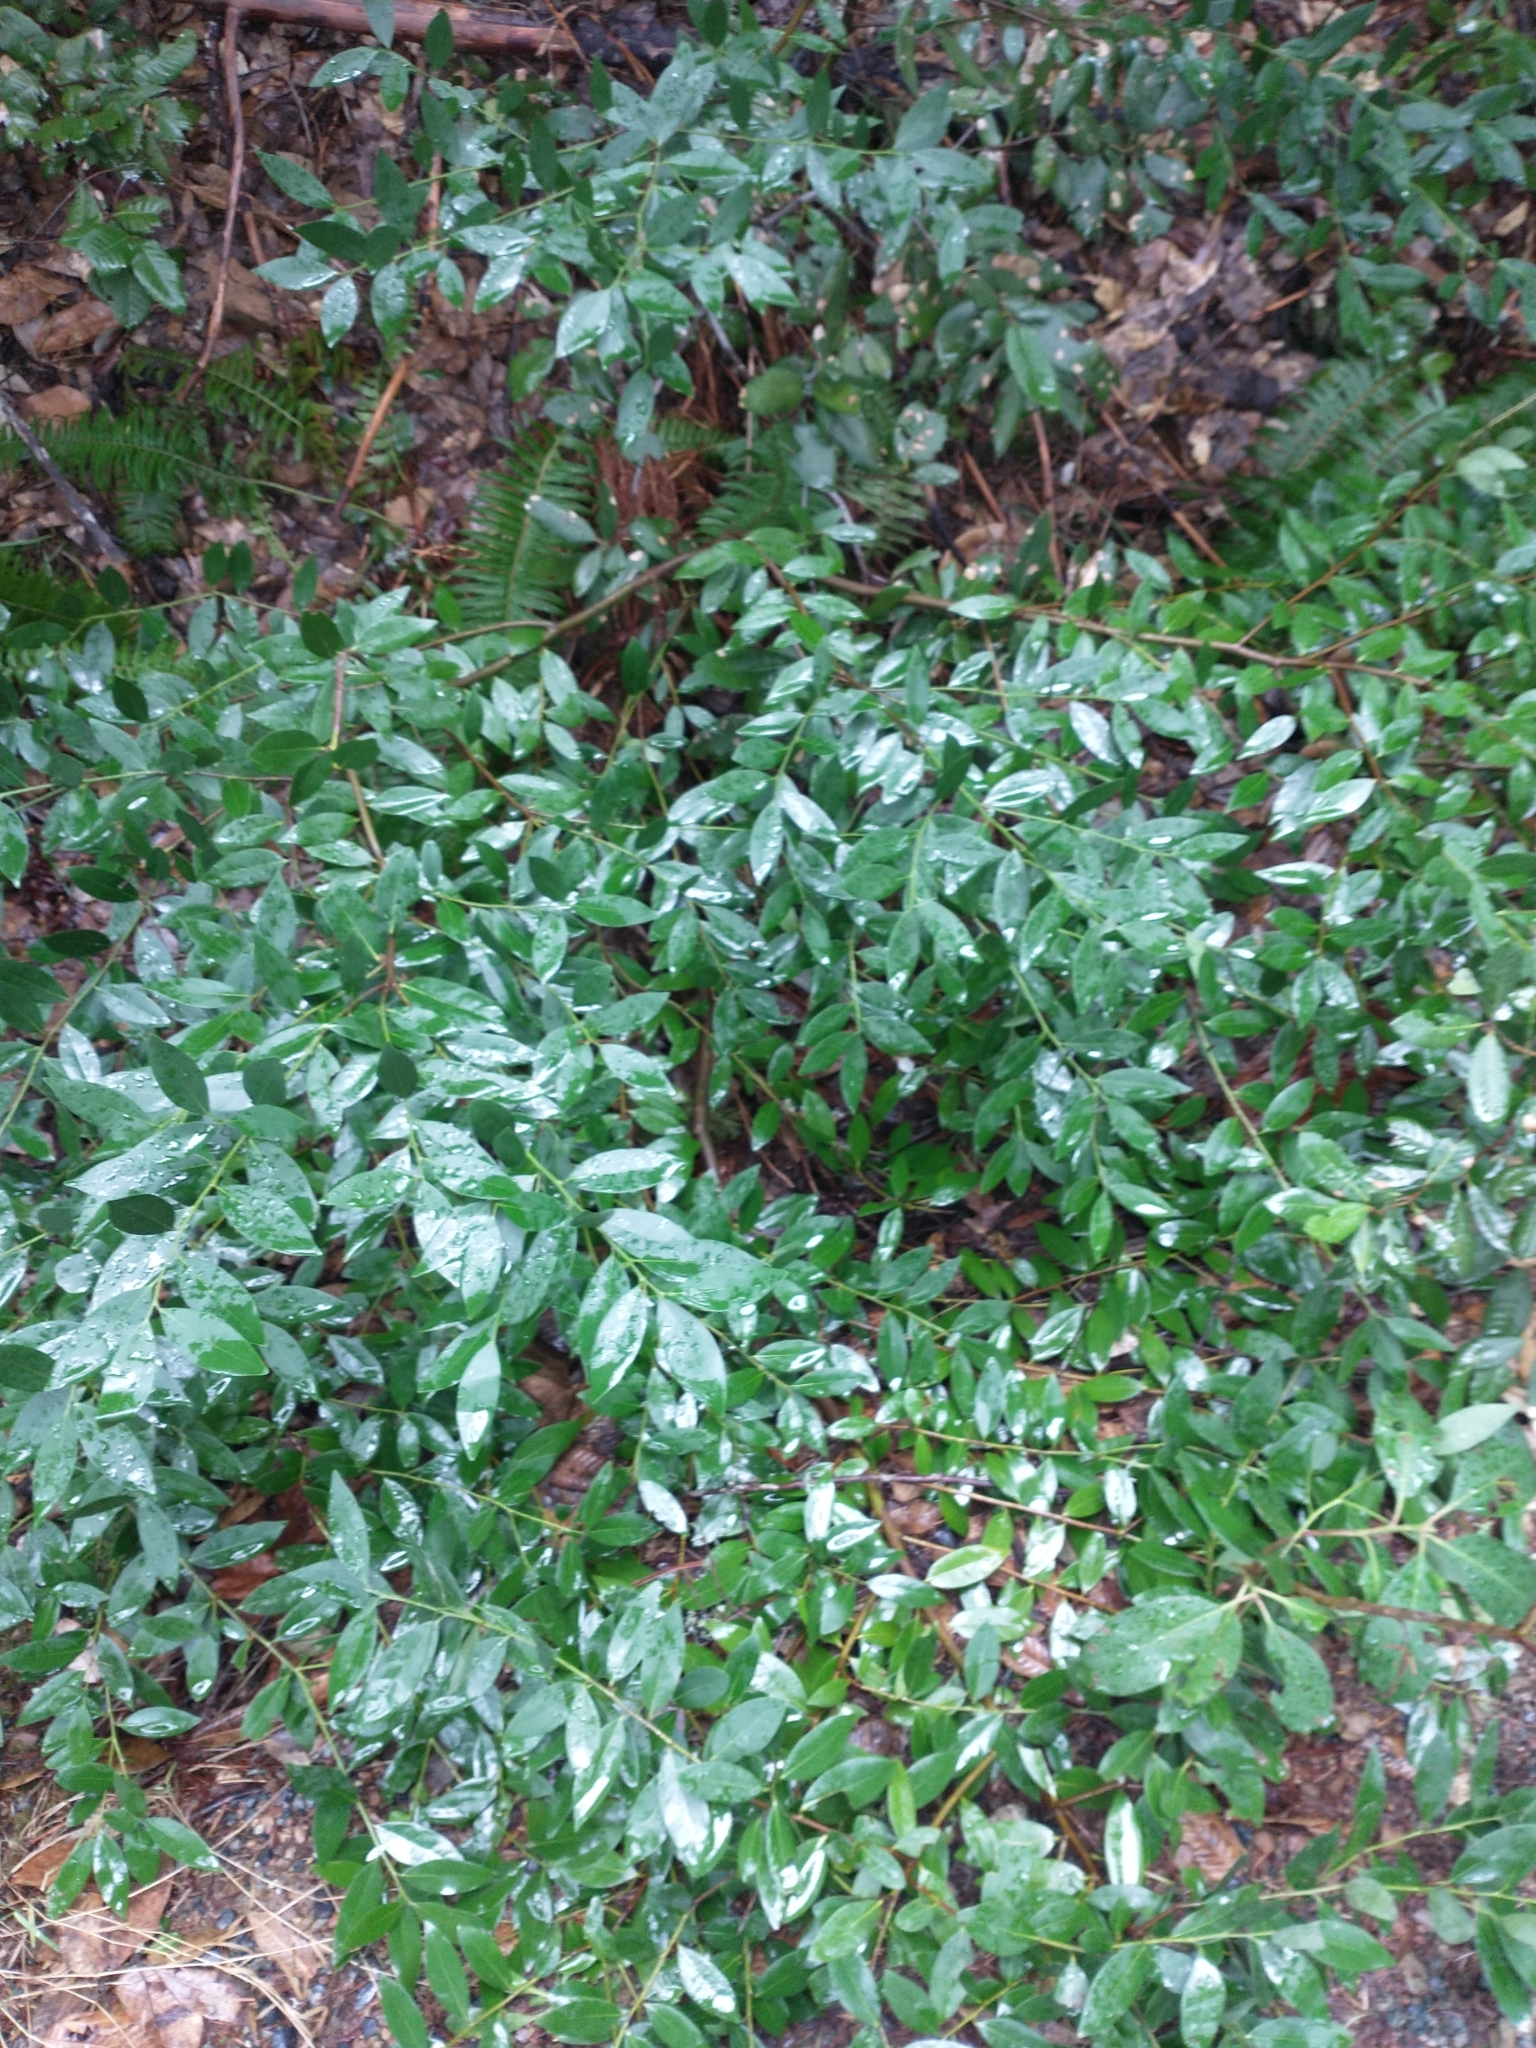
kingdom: Plantae
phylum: Tracheophyta
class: Magnoliopsida
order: Laurales
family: Lauraceae
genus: Umbellularia
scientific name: Umbellularia californica
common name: California bay
